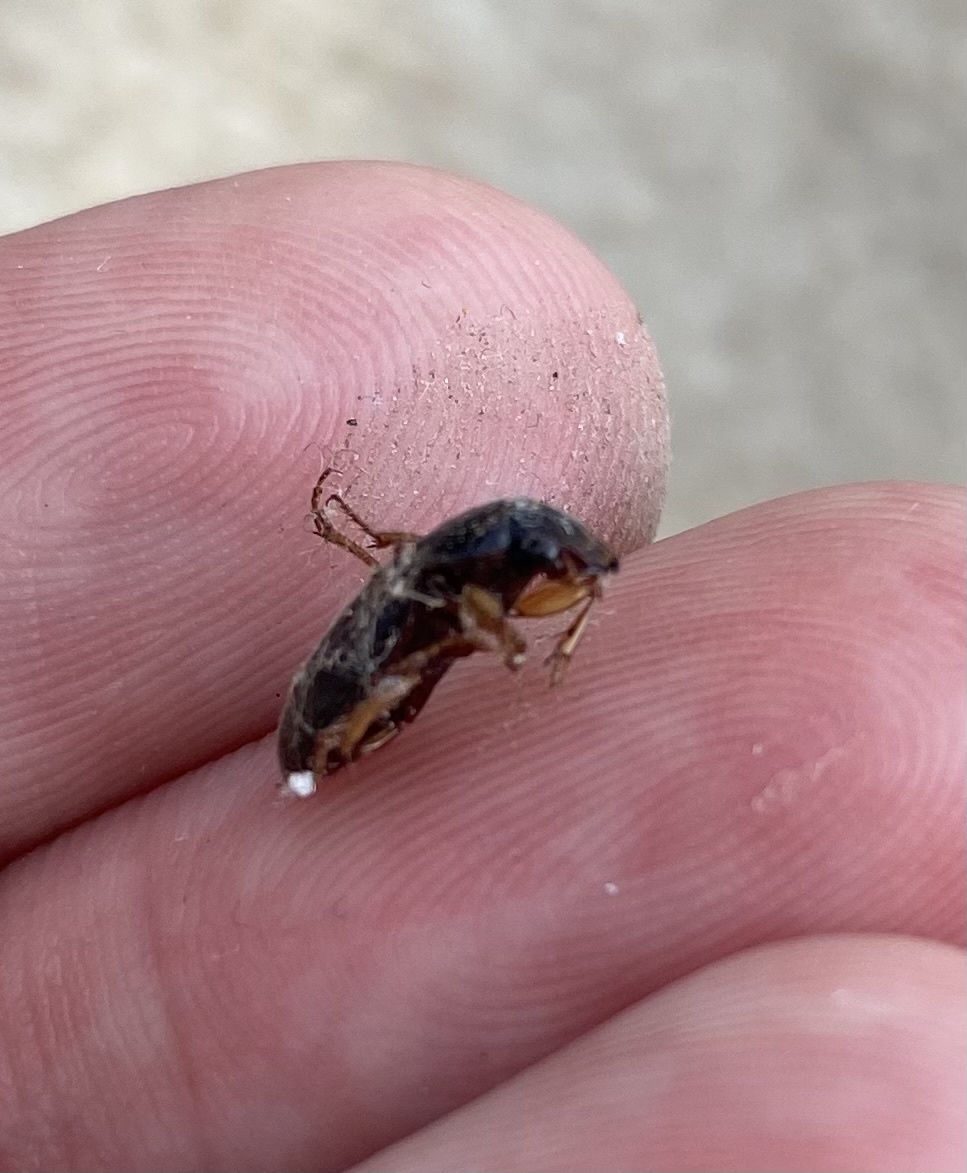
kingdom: Animalia
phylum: Arthropoda
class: Insecta
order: Coleoptera
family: Carabidae
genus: Harpalus
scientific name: Harpalus
